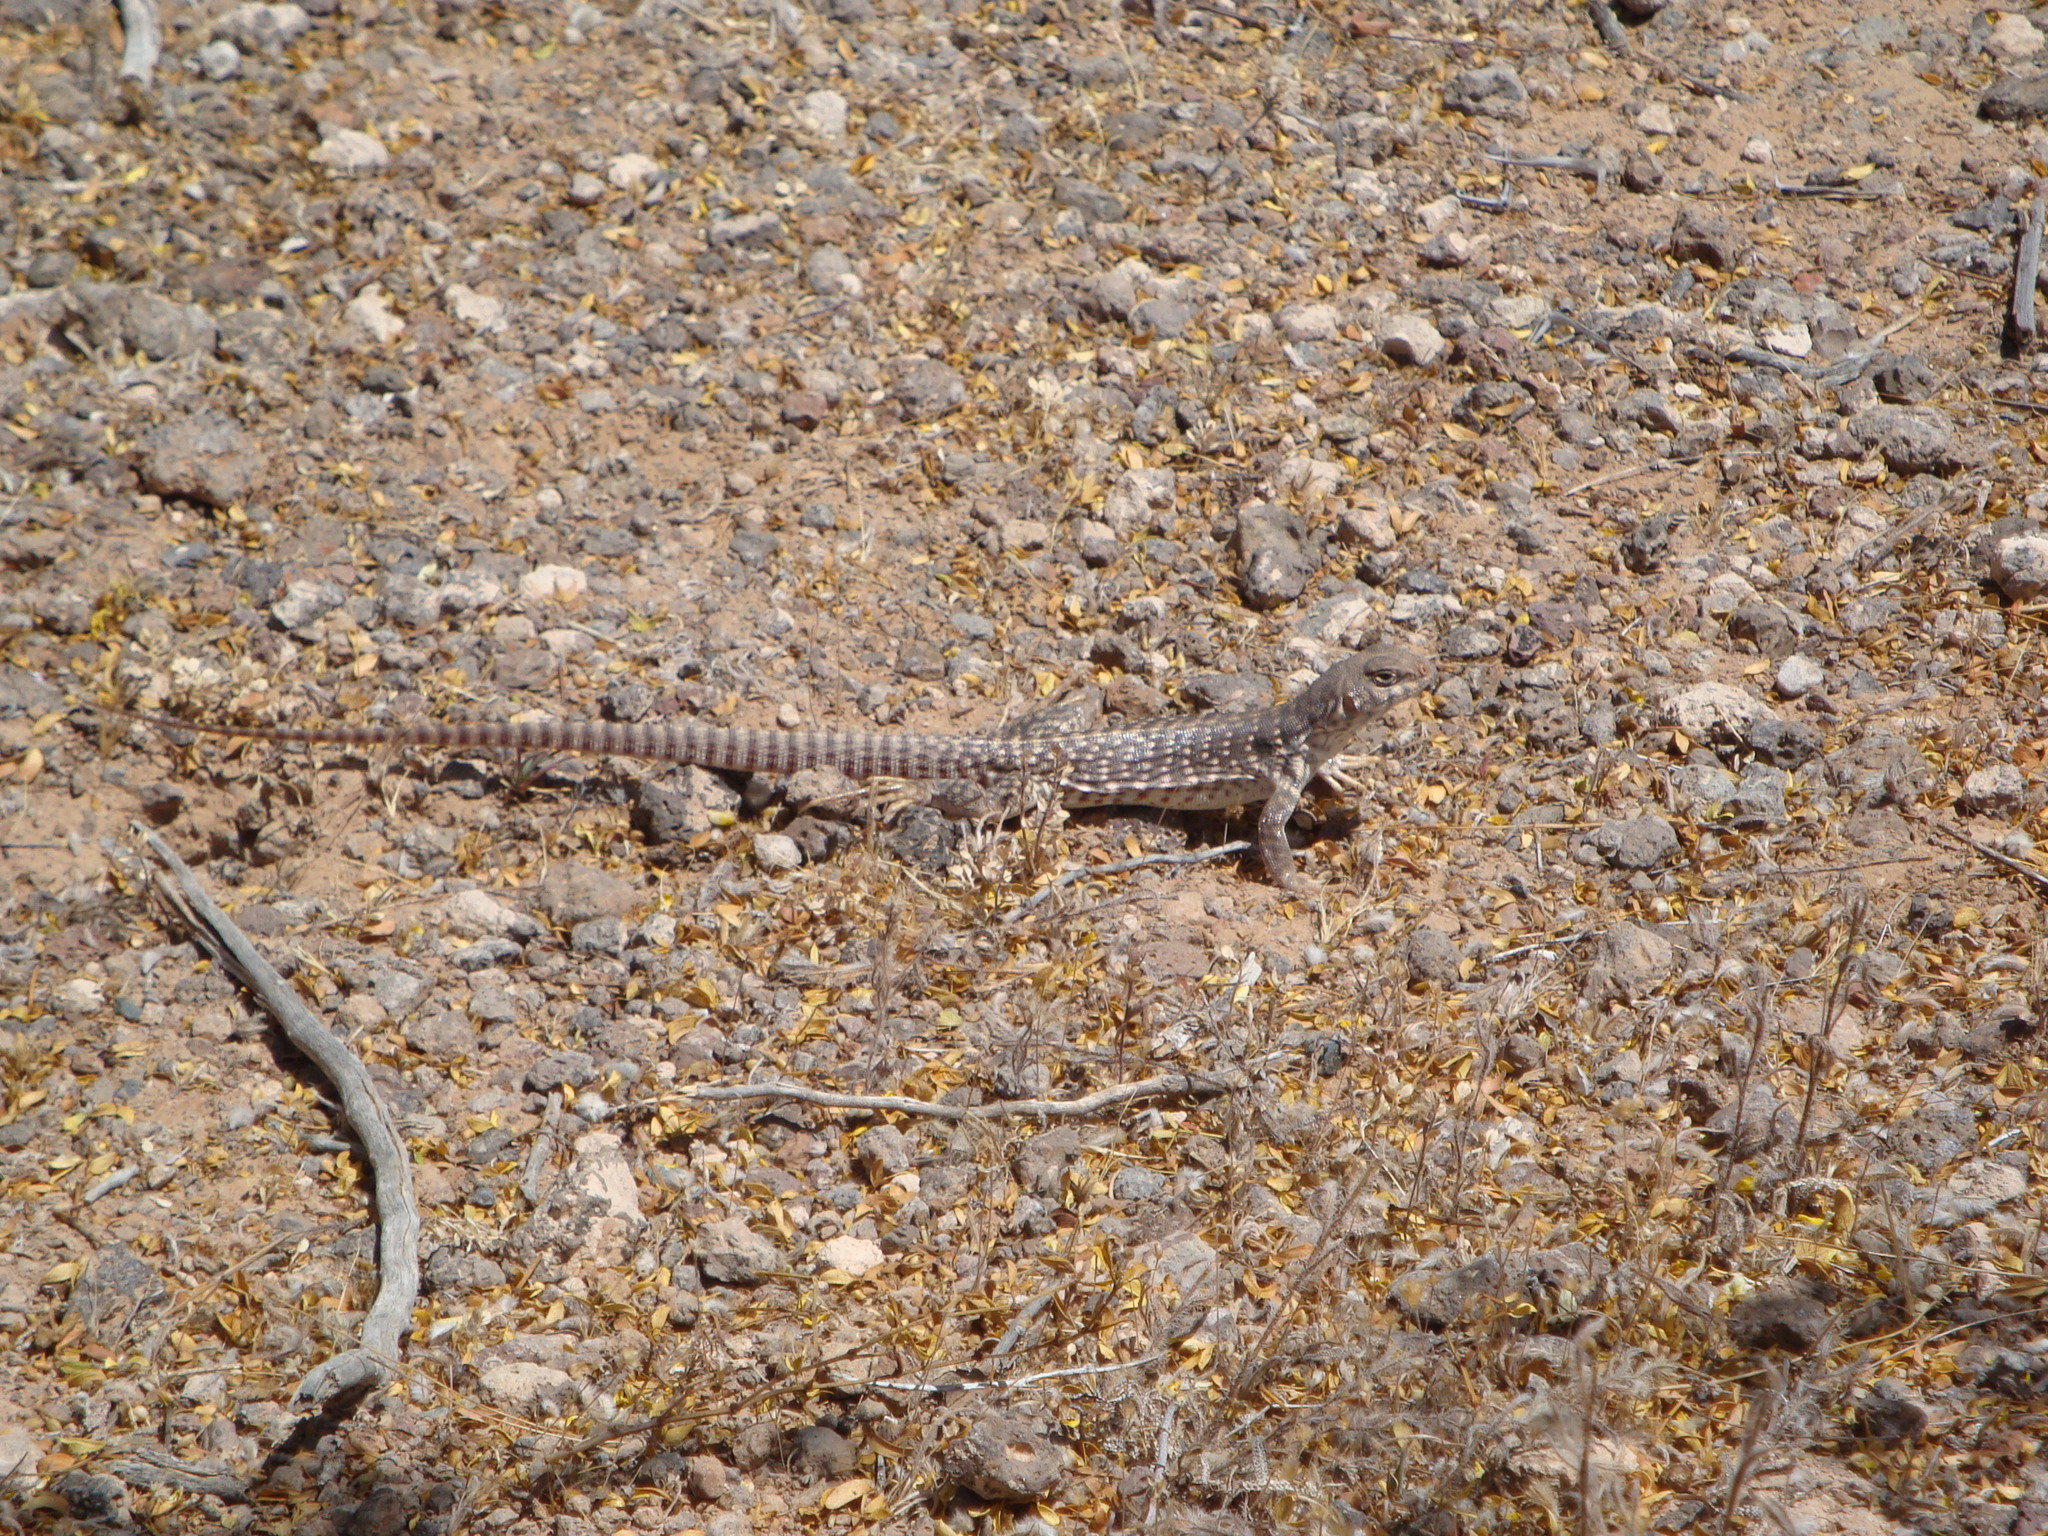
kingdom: Animalia
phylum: Chordata
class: Squamata
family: Iguanidae
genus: Dipsosaurus
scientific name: Dipsosaurus dorsalis
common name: Desert iguana
